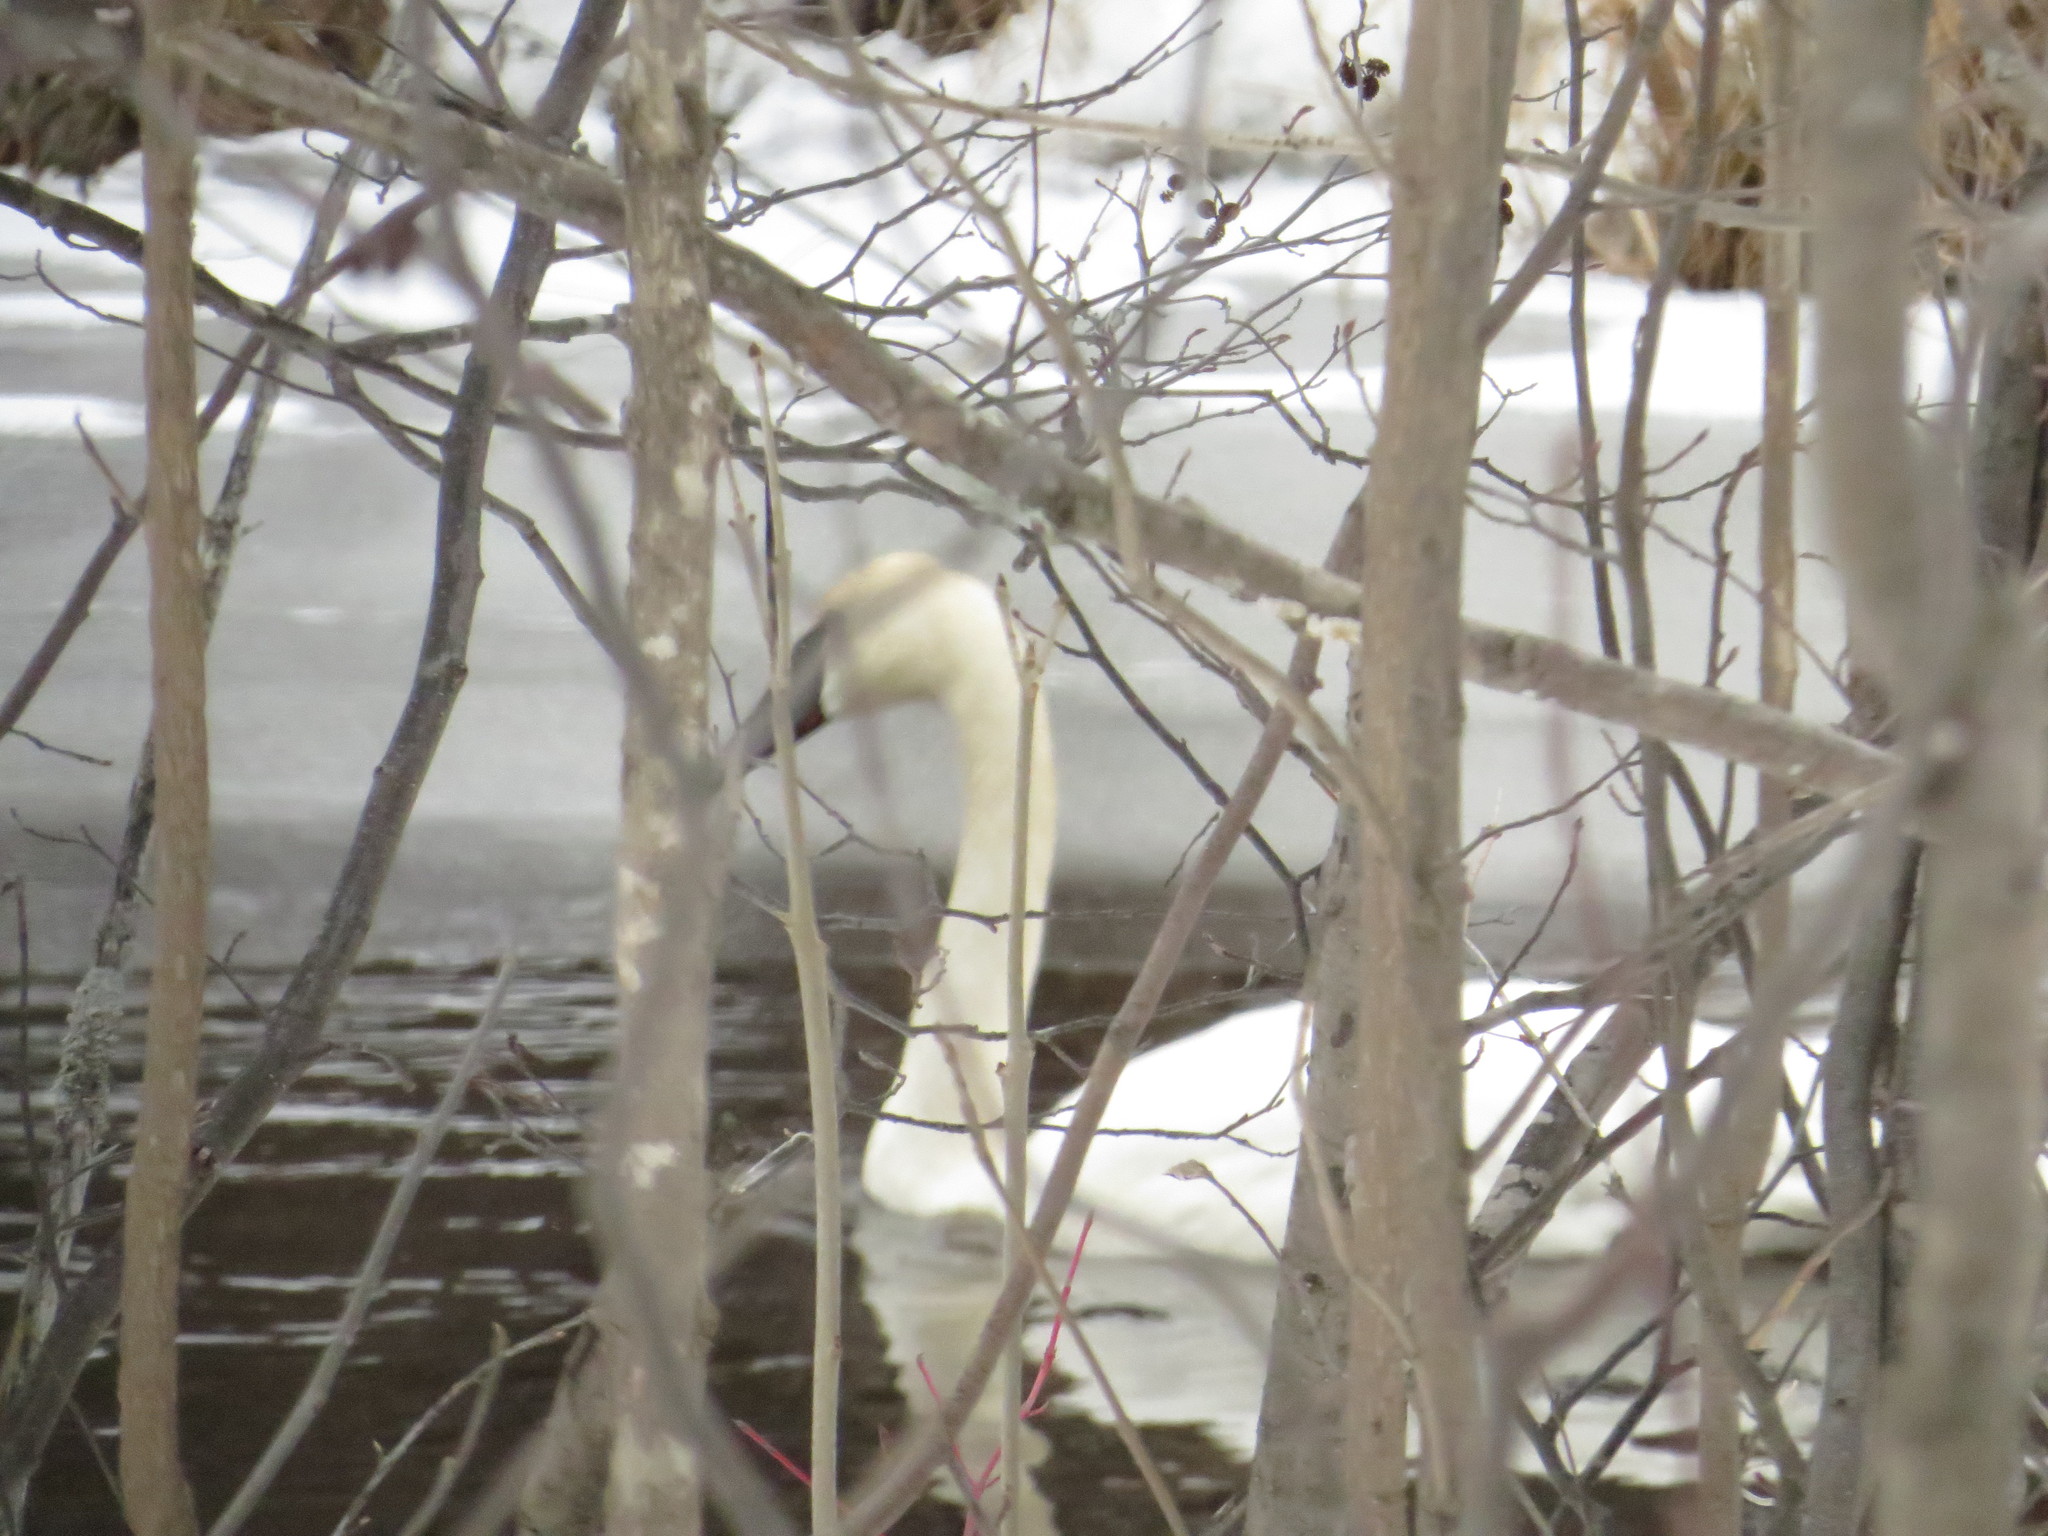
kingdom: Animalia
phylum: Chordata
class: Aves
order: Anseriformes
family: Anatidae
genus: Cygnus
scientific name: Cygnus buccinator
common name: Trumpeter swan
